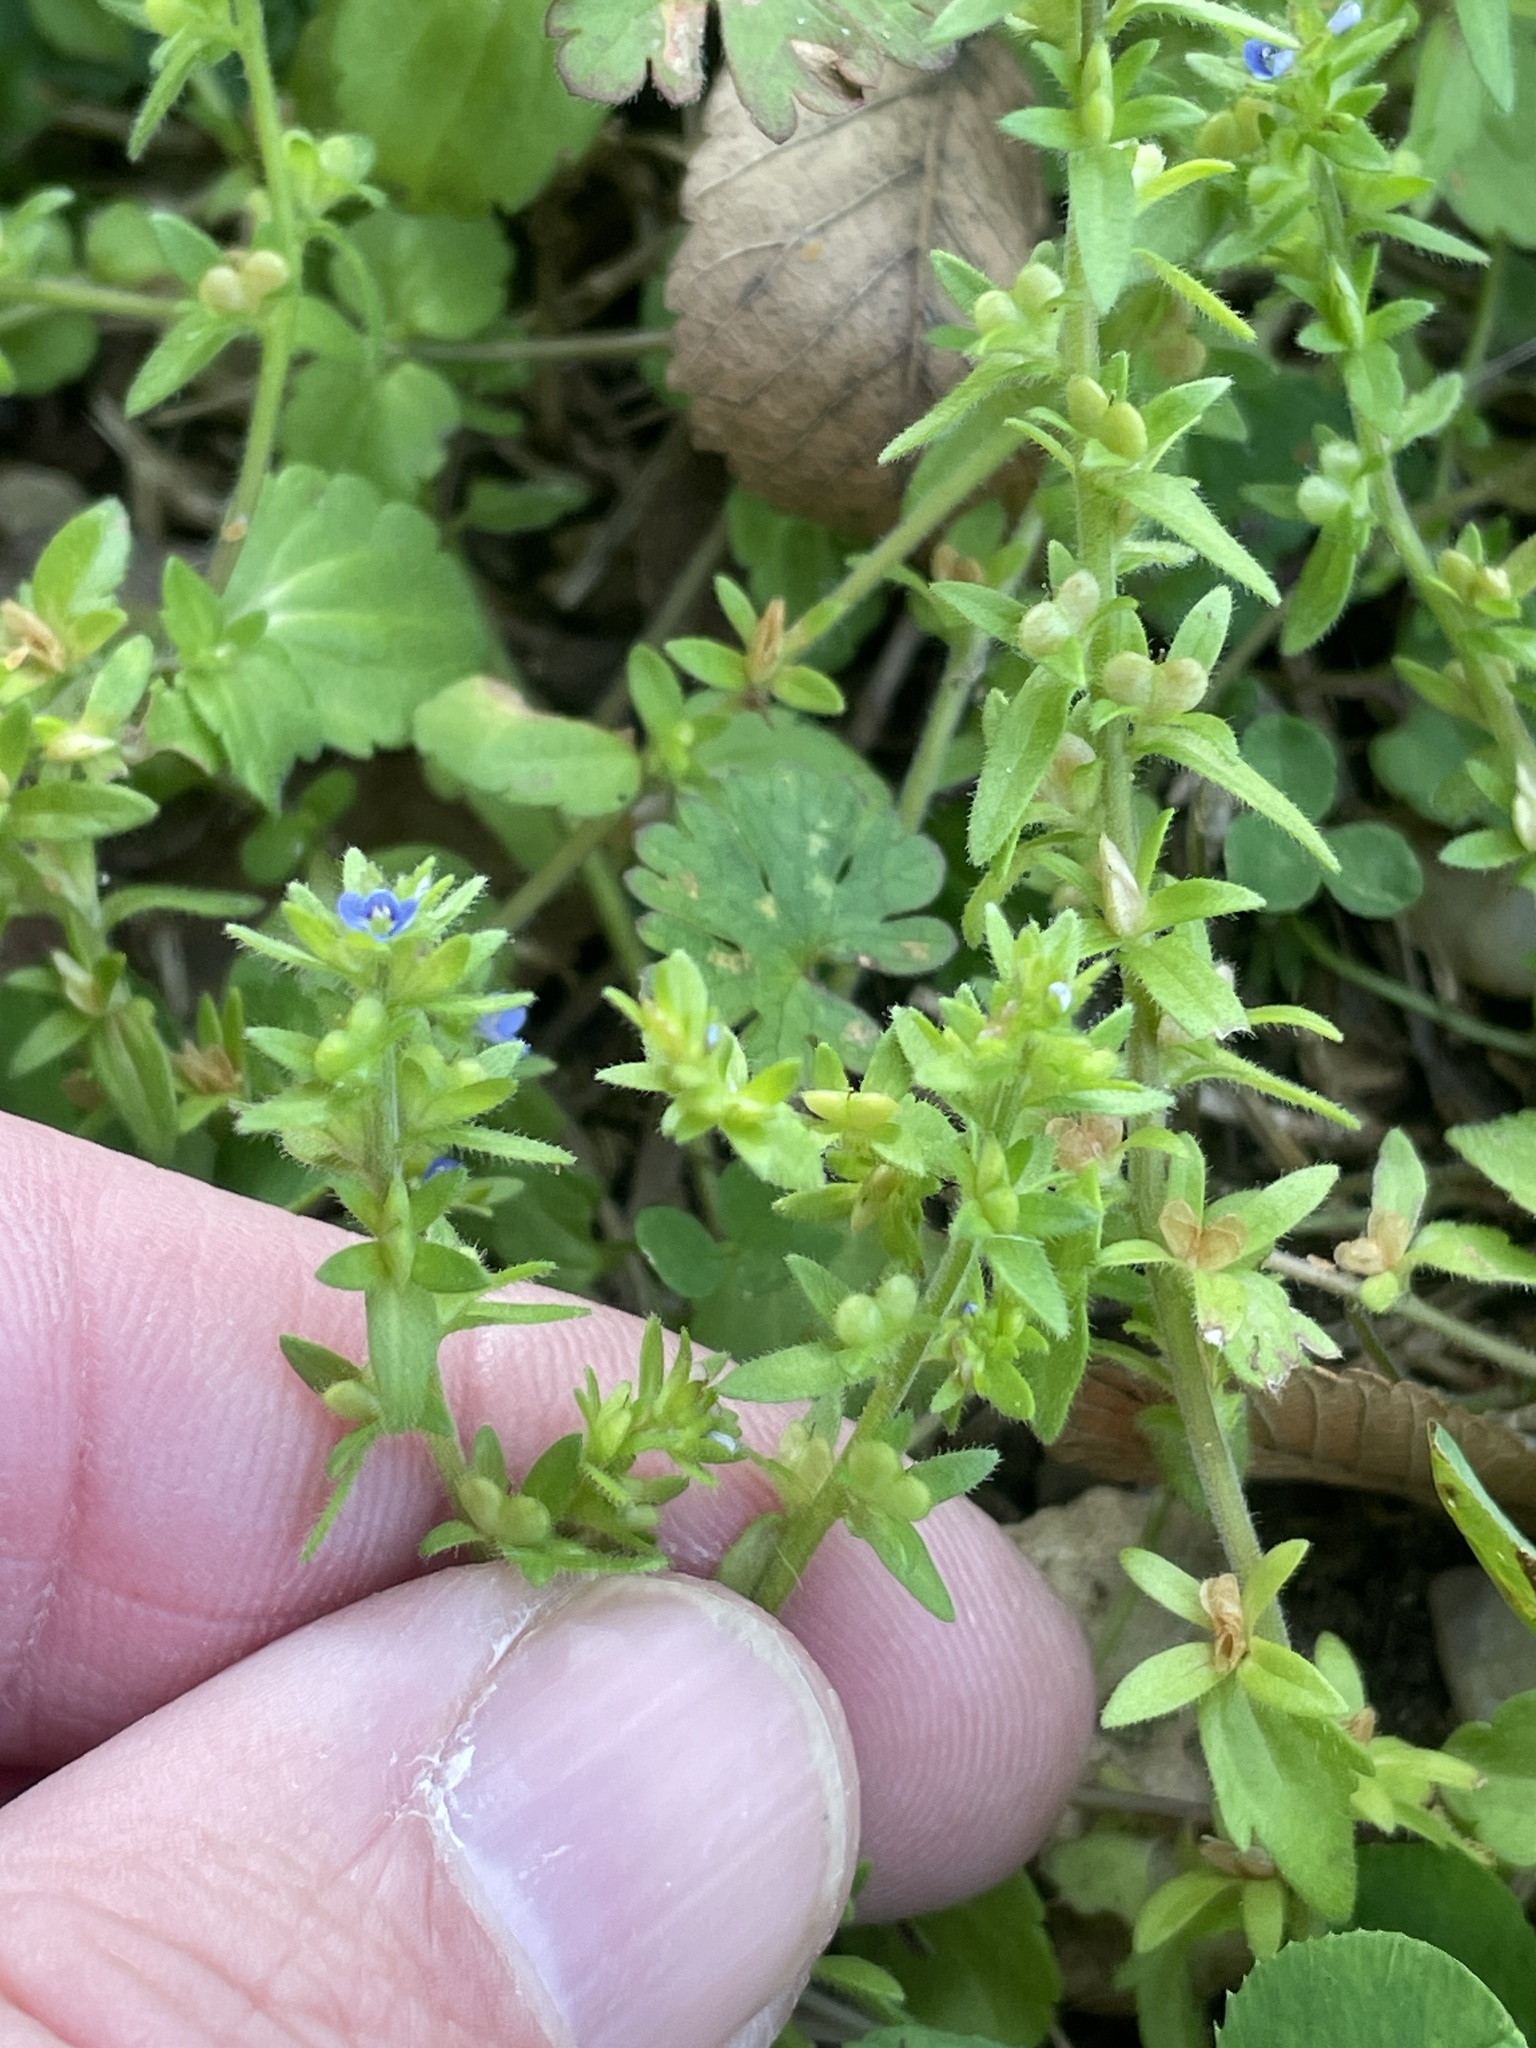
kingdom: Plantae
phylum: Tracheophyta
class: Magnoliopsida
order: Lamiales
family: Plantaginaceae
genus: Veronica
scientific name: Veronica arvensis
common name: Corn speedwell
